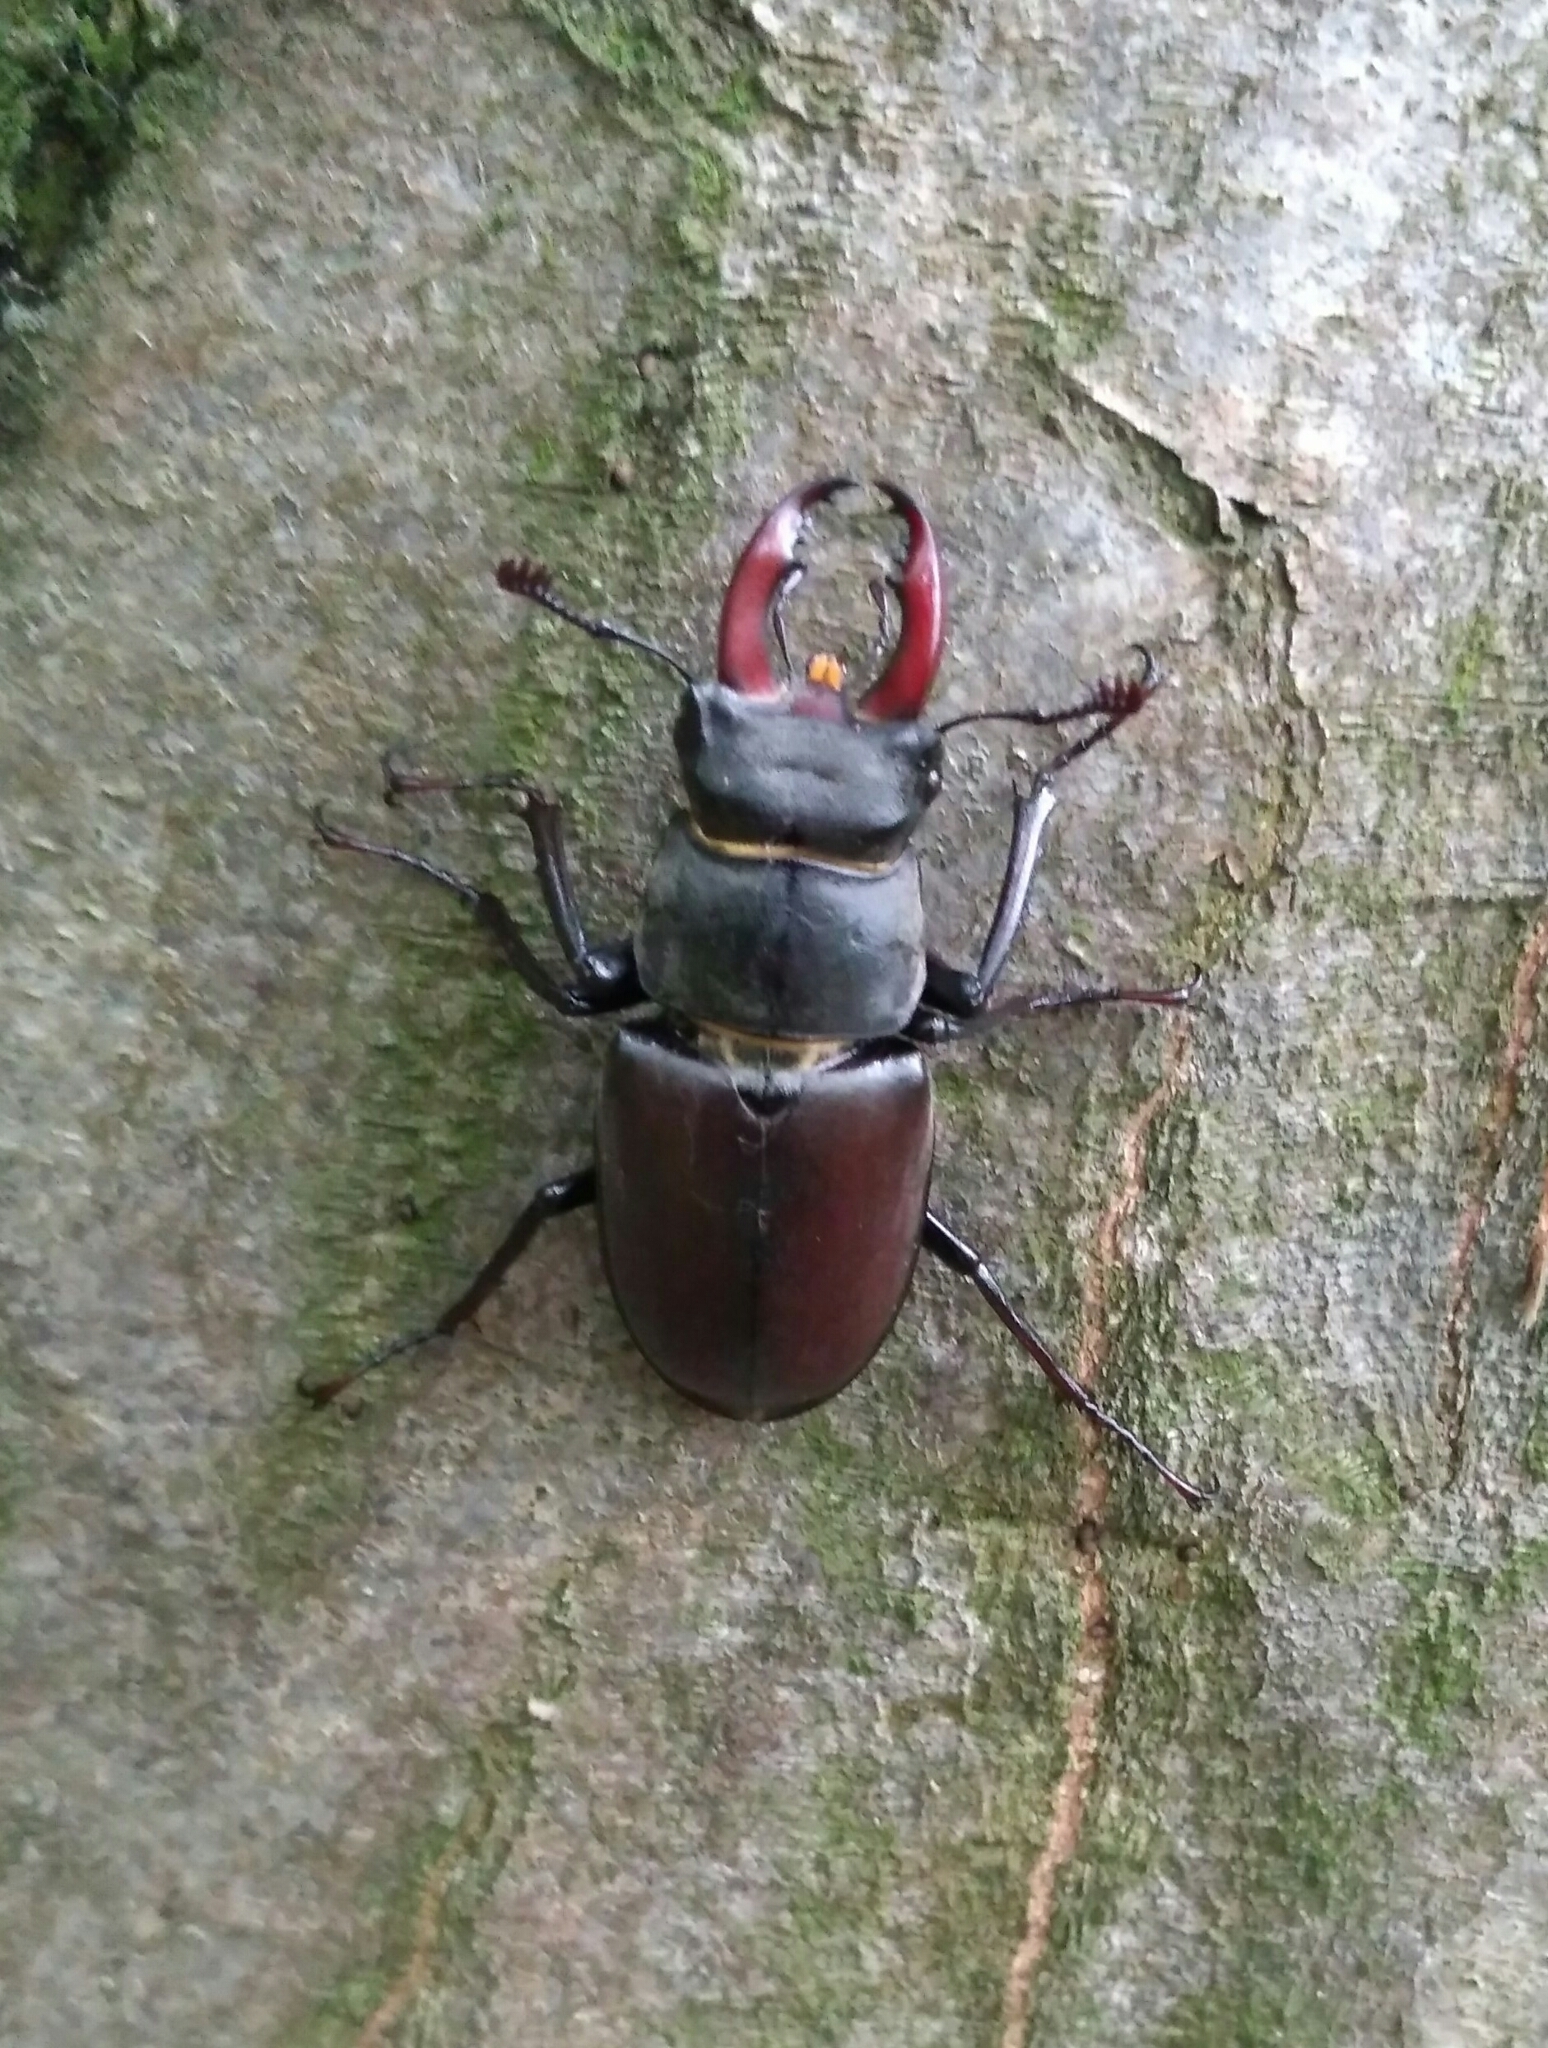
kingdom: Animalia
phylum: Arthropoda
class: Insecta
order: Coleoptera
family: Lucanidae
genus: Lucanus
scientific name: Lucanus cervus
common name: Stag beetle
